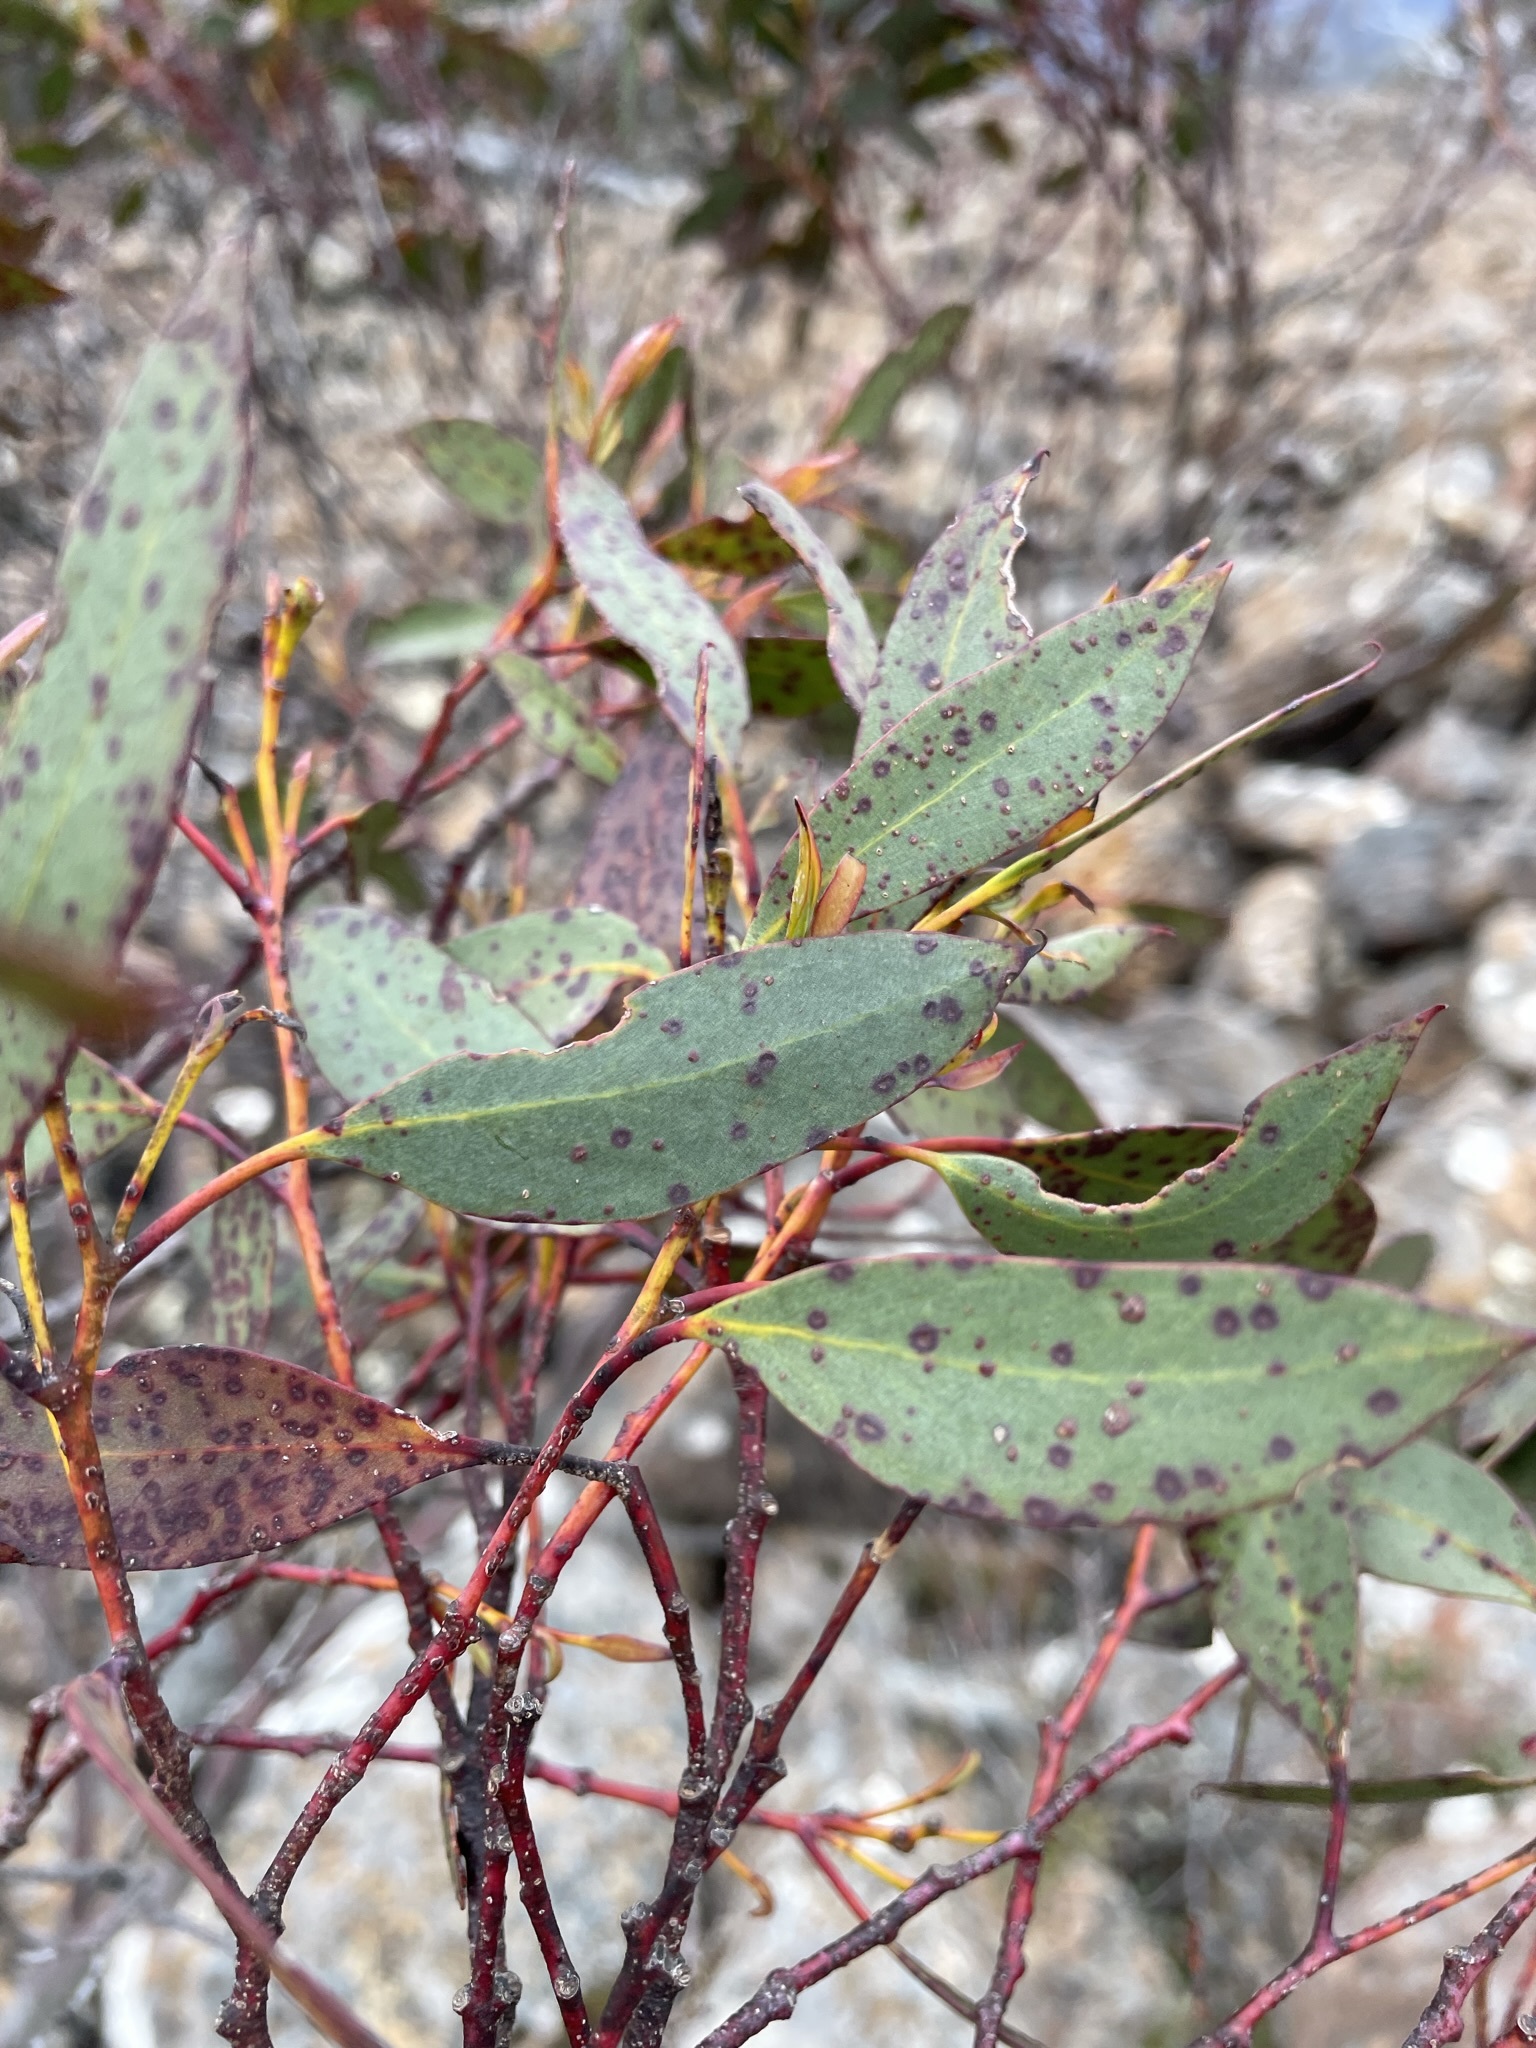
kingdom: Plantae
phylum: Tracheophyta
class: Magnoliopsida
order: Myrtales
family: Myrtaceae
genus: Eucalyptus
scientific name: Eucalyptus coccifera
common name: Tasmanian snow-gum
